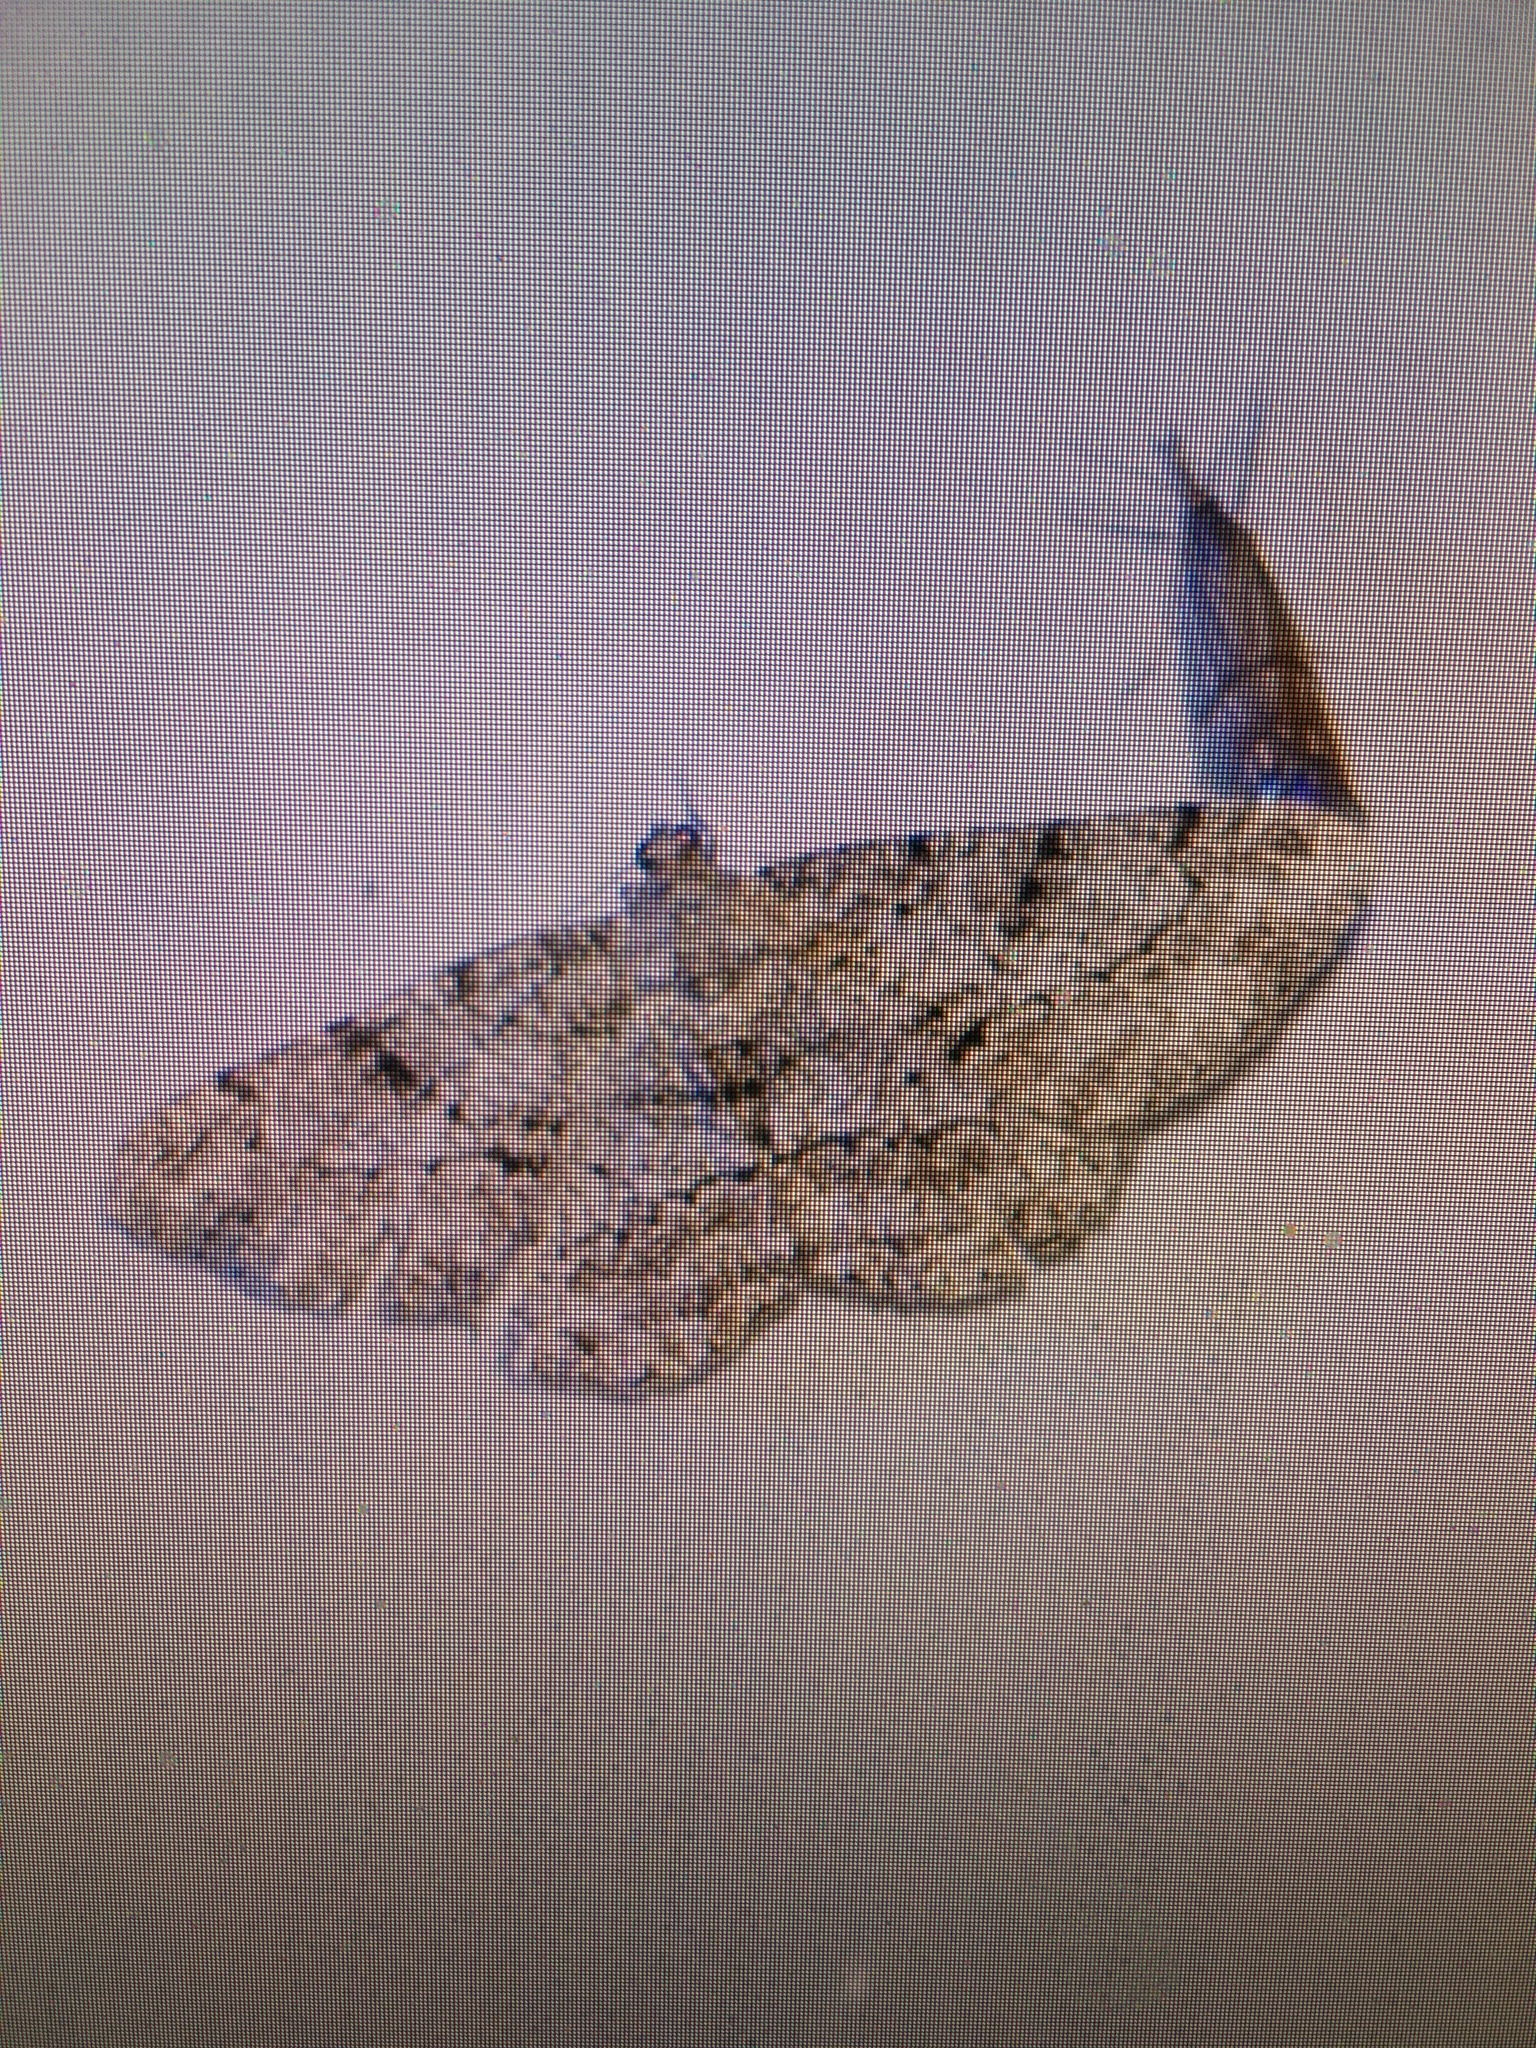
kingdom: Animalia
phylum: Arthropoda
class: Insecta
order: Lepidoptera
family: Geometridae
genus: Peribatodes
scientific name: Peribatodes rhomboidaria
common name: Willow beauty
